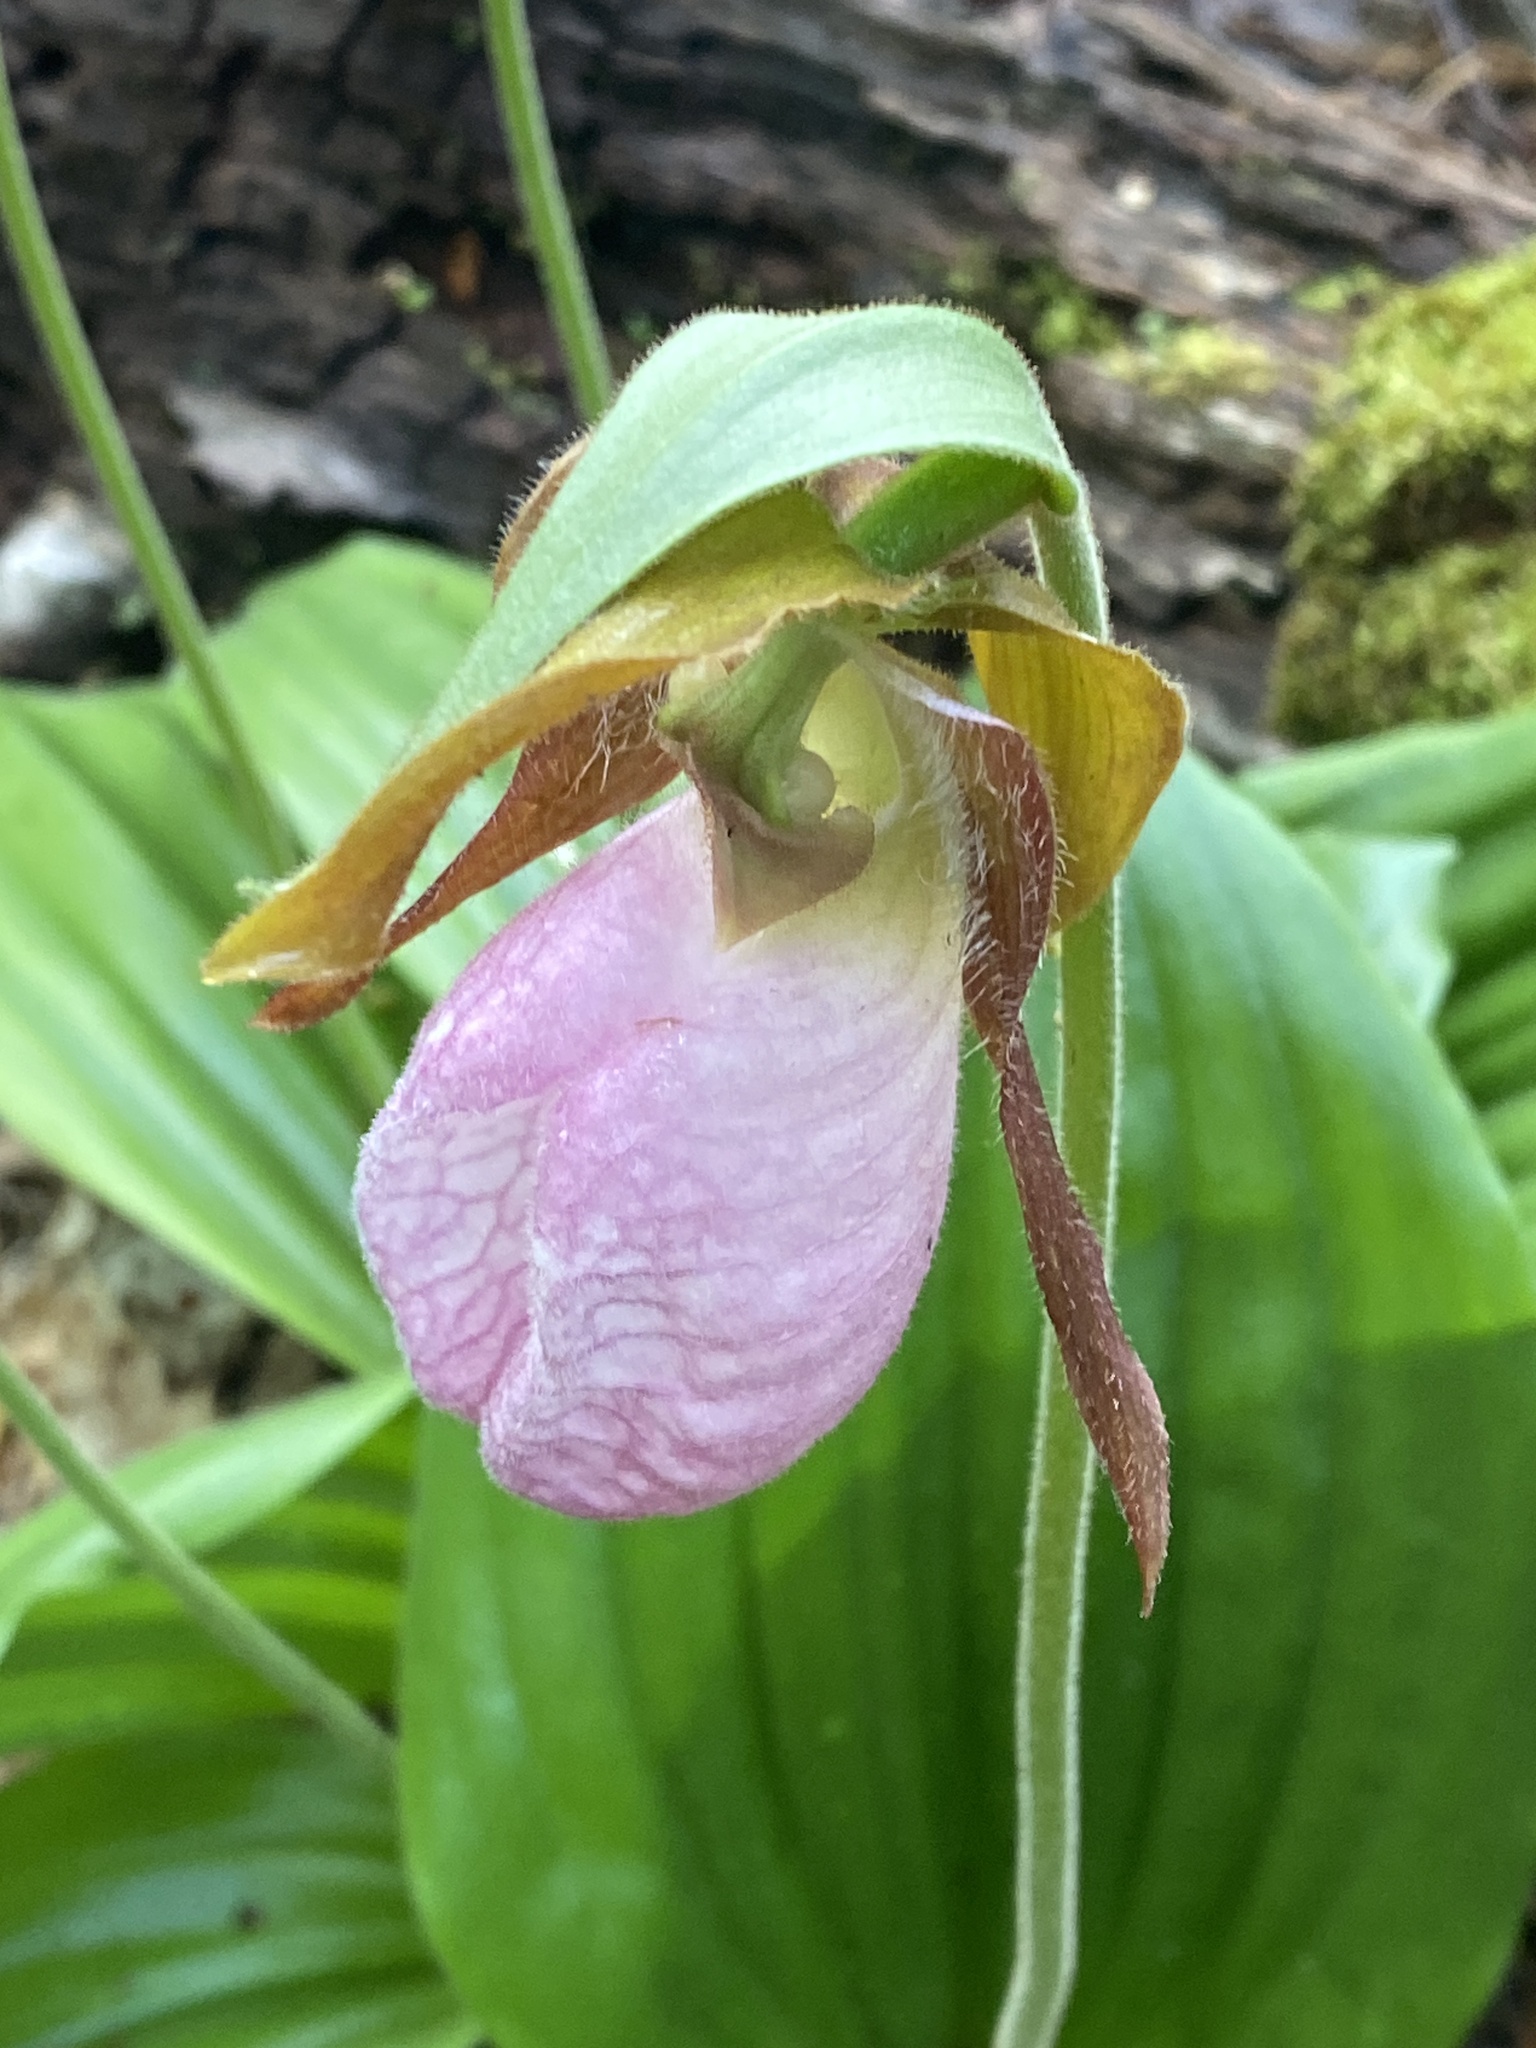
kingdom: Plantae
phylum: Tracheophyta
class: Liliopsida
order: Asparagales
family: Orchidaceae
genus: Cypripedium
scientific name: Cypripedium acaule
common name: Pink lady's-slipper
